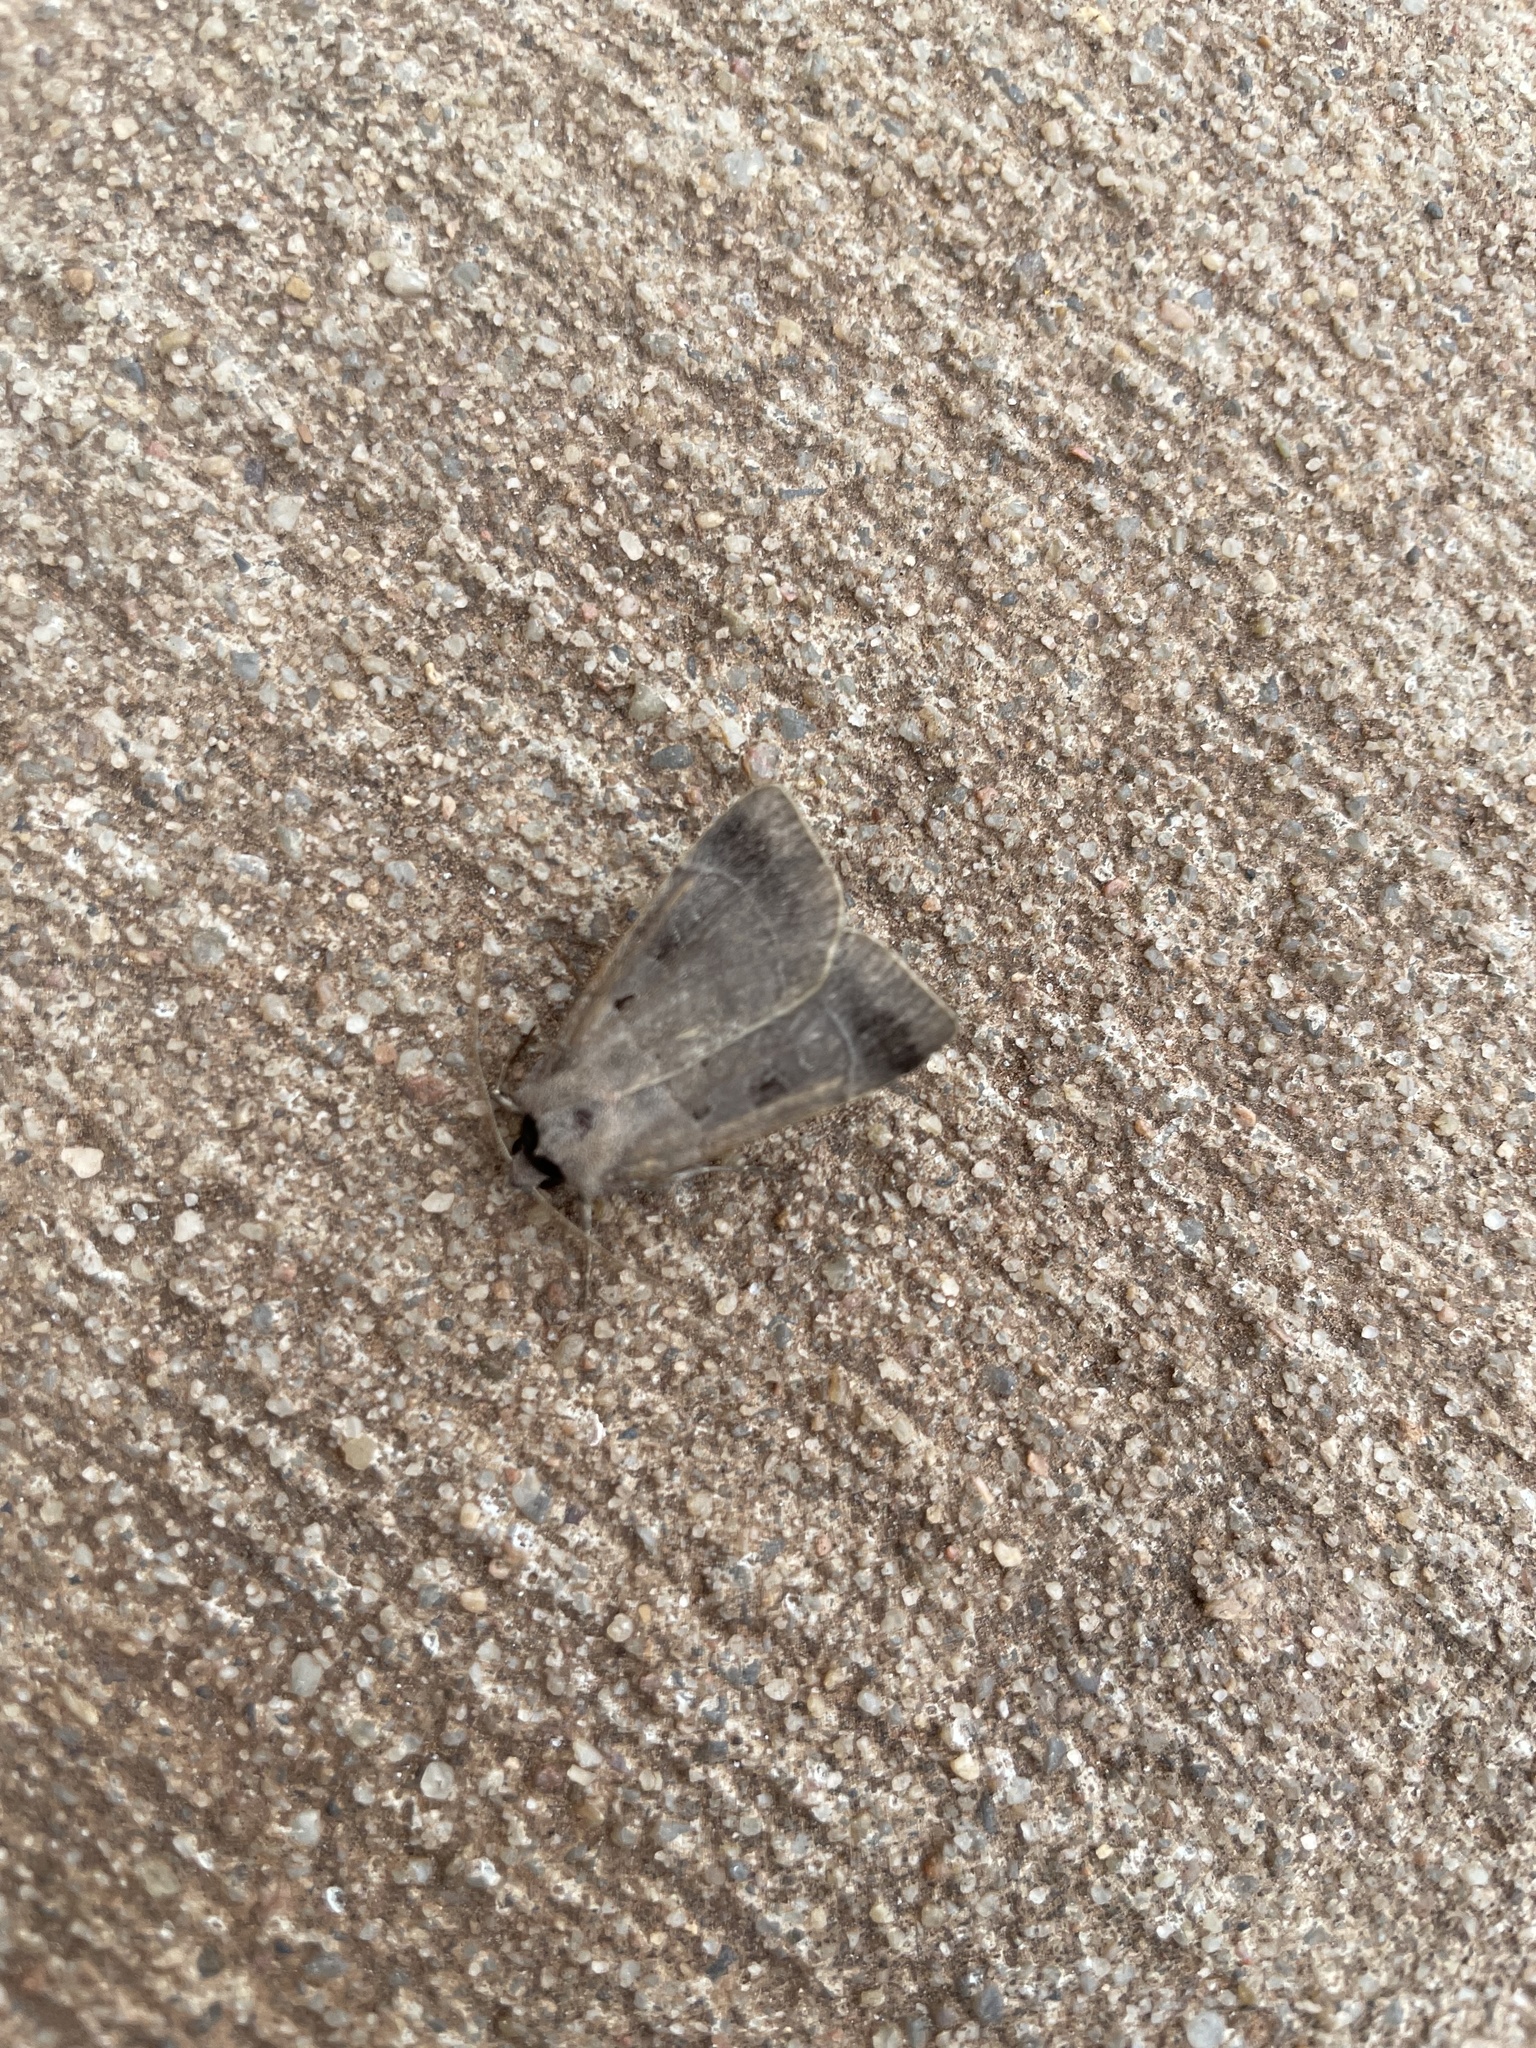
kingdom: Animalia
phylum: Arthropoda
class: Insecta
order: Lepidoptera
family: Noctuidae
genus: Agnorisma
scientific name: Agnorisma badinodis
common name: Pale-banded dart
